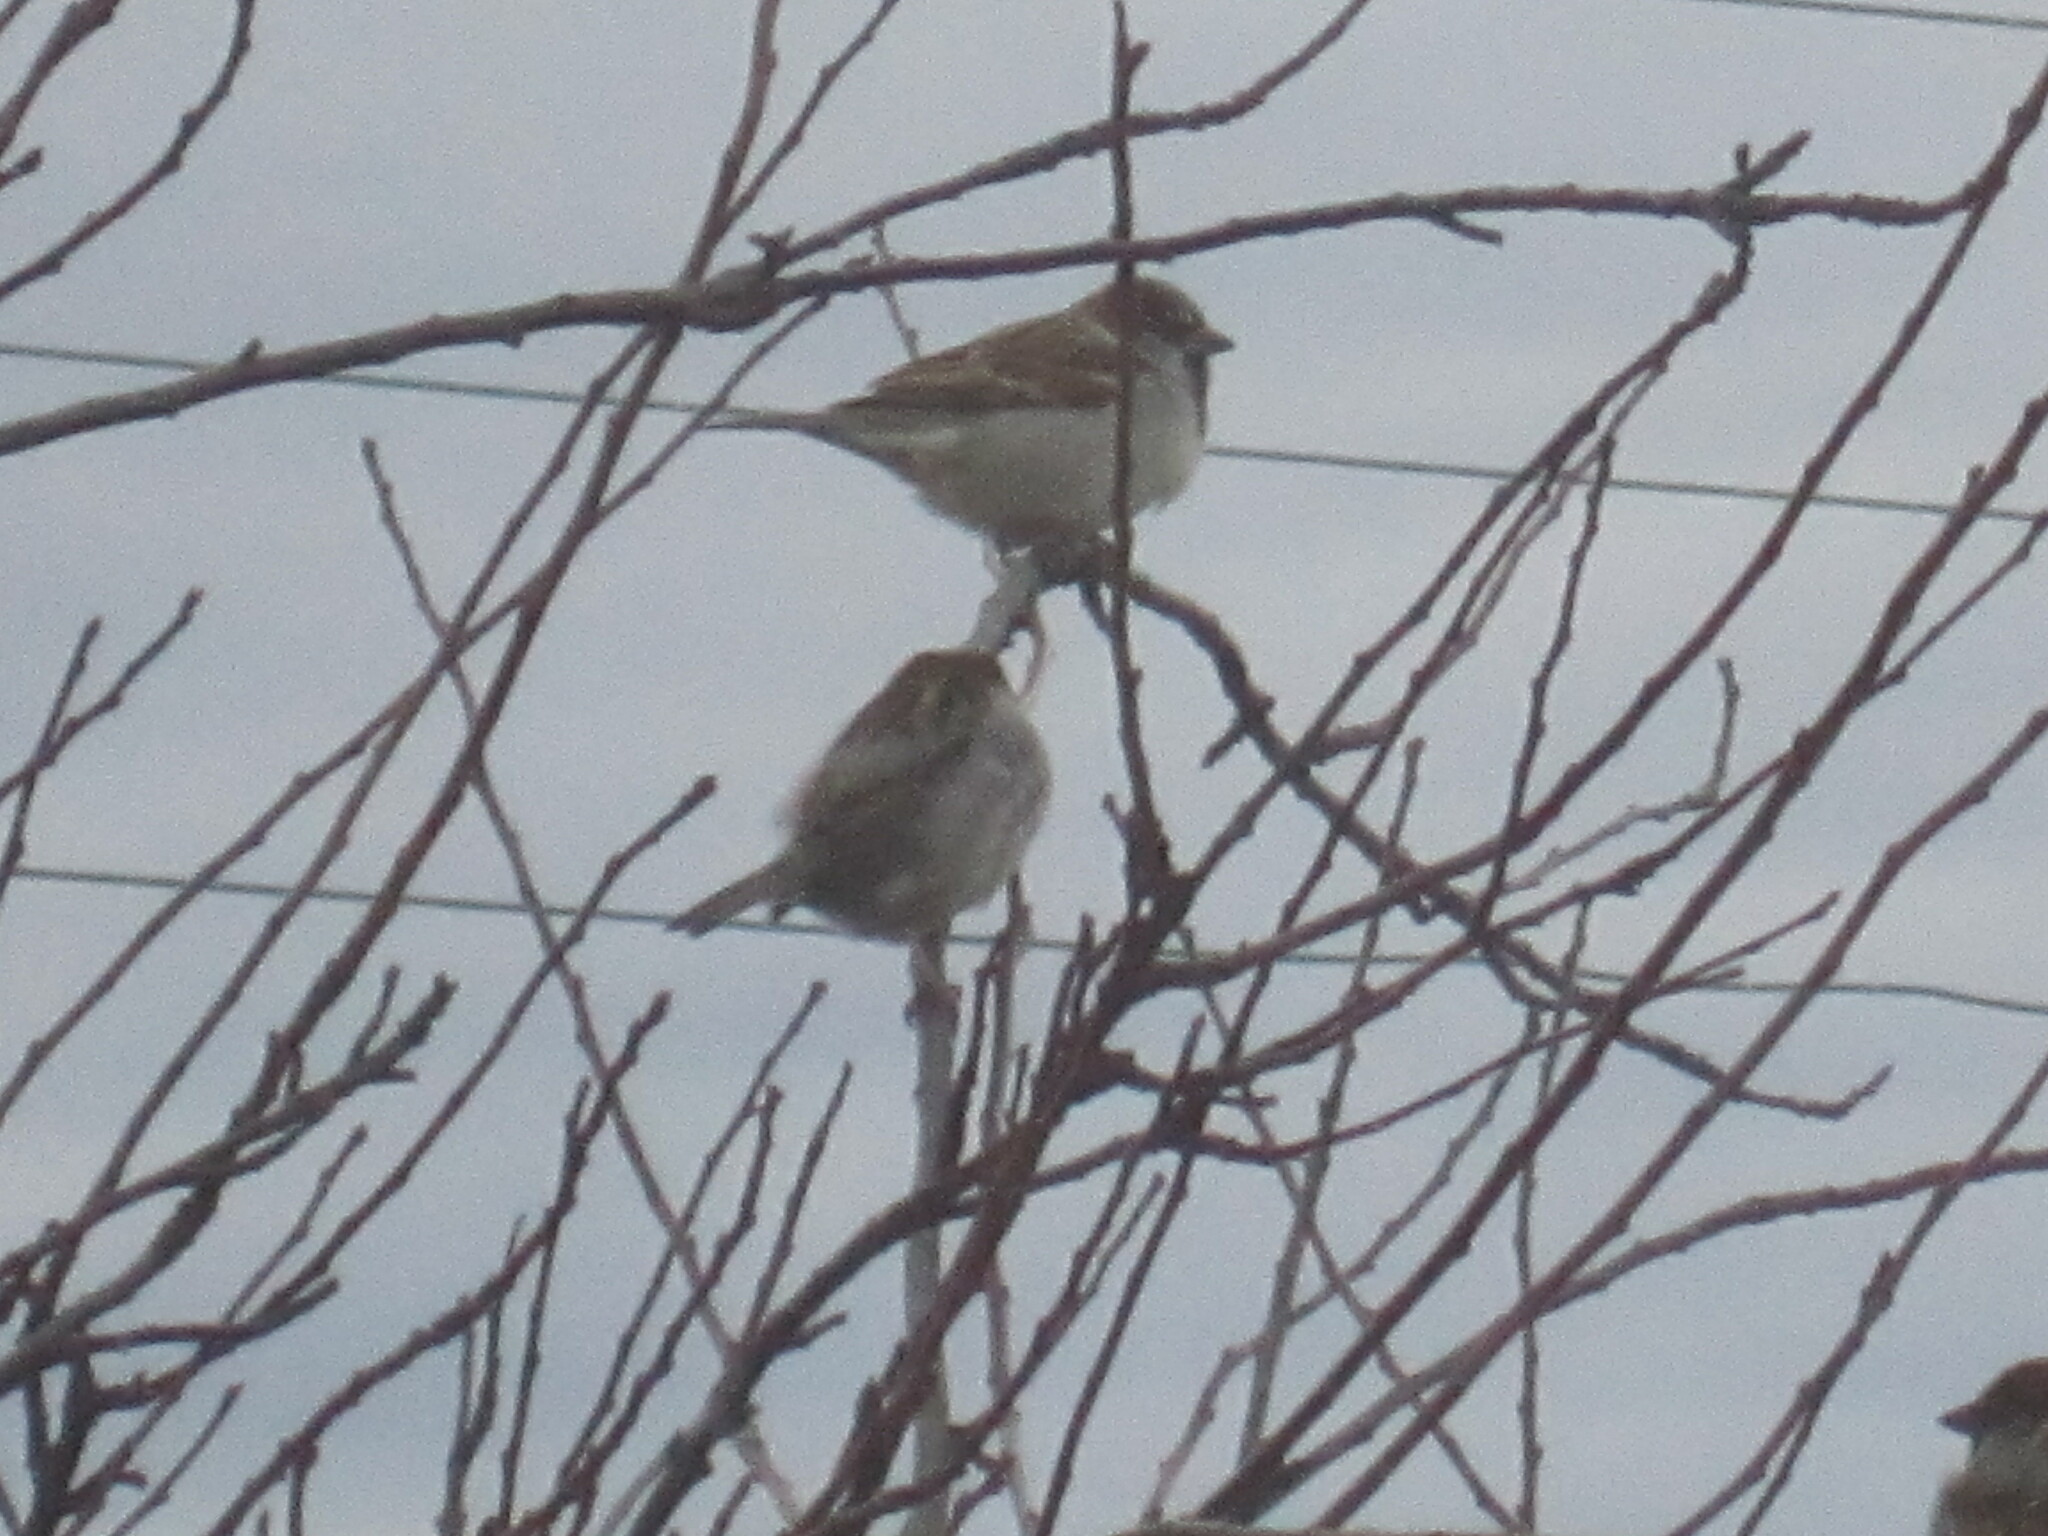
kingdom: Animalia
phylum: Chordata
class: Aves
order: Passeriformes
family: Passeridae
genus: Passer
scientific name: Passer domesticus
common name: House sparrow
